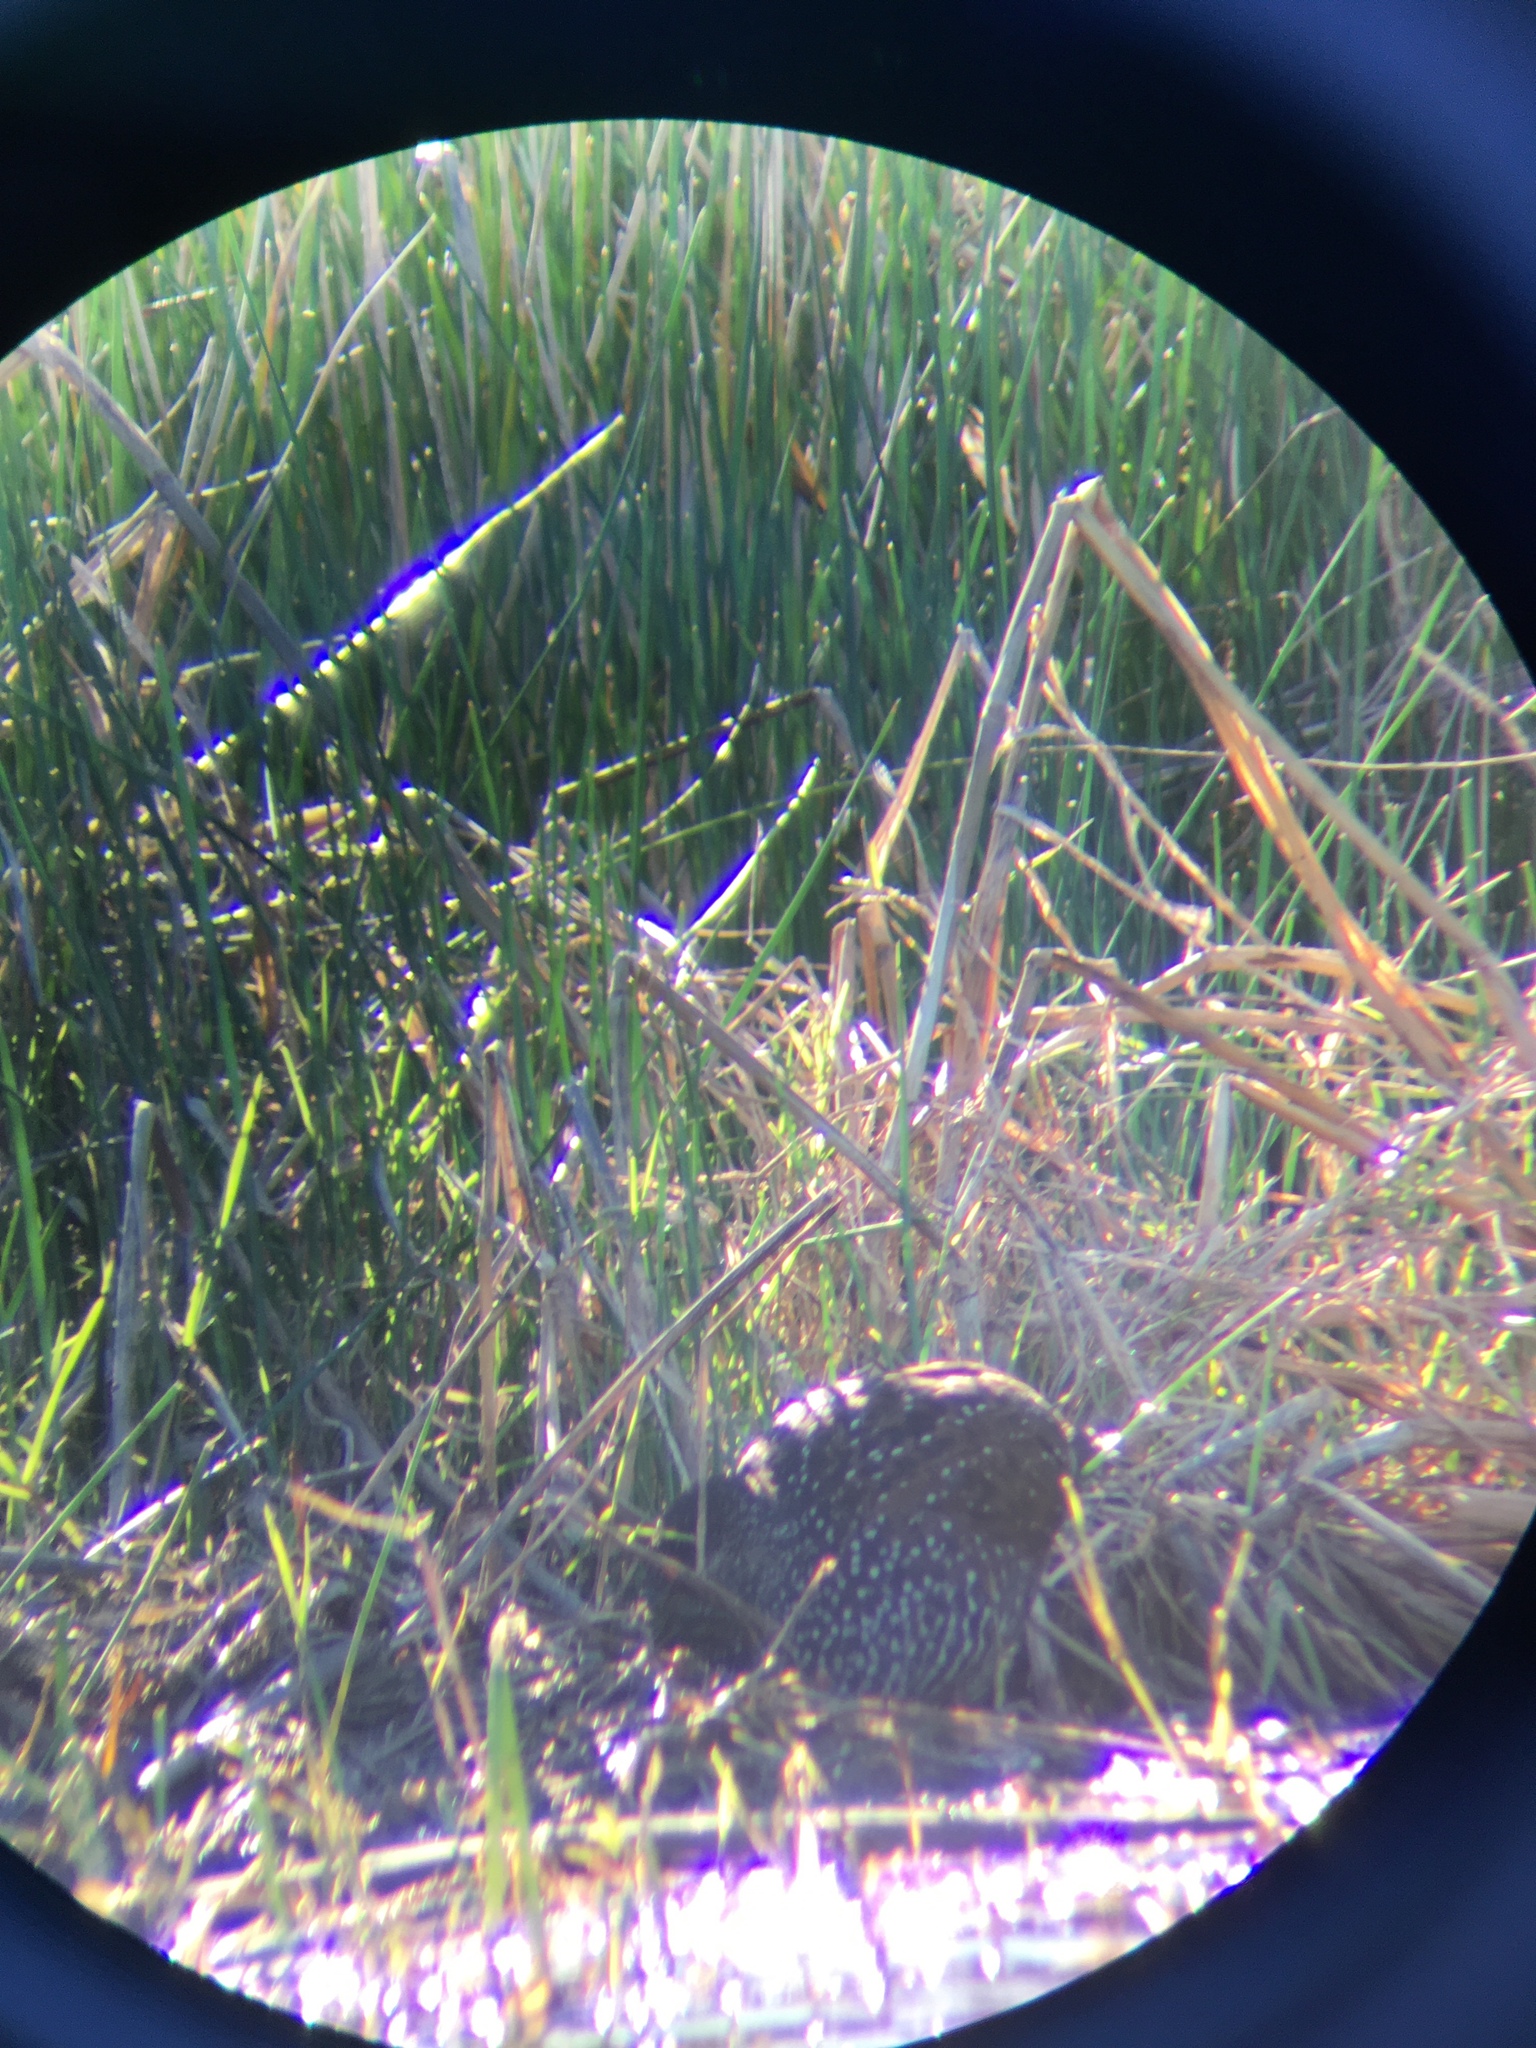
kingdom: Animalia
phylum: Chordata
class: Aves
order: Gruiformes
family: Rallidae
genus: Pardirallus
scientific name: Pardirallus maculatus
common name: Spotted rail
